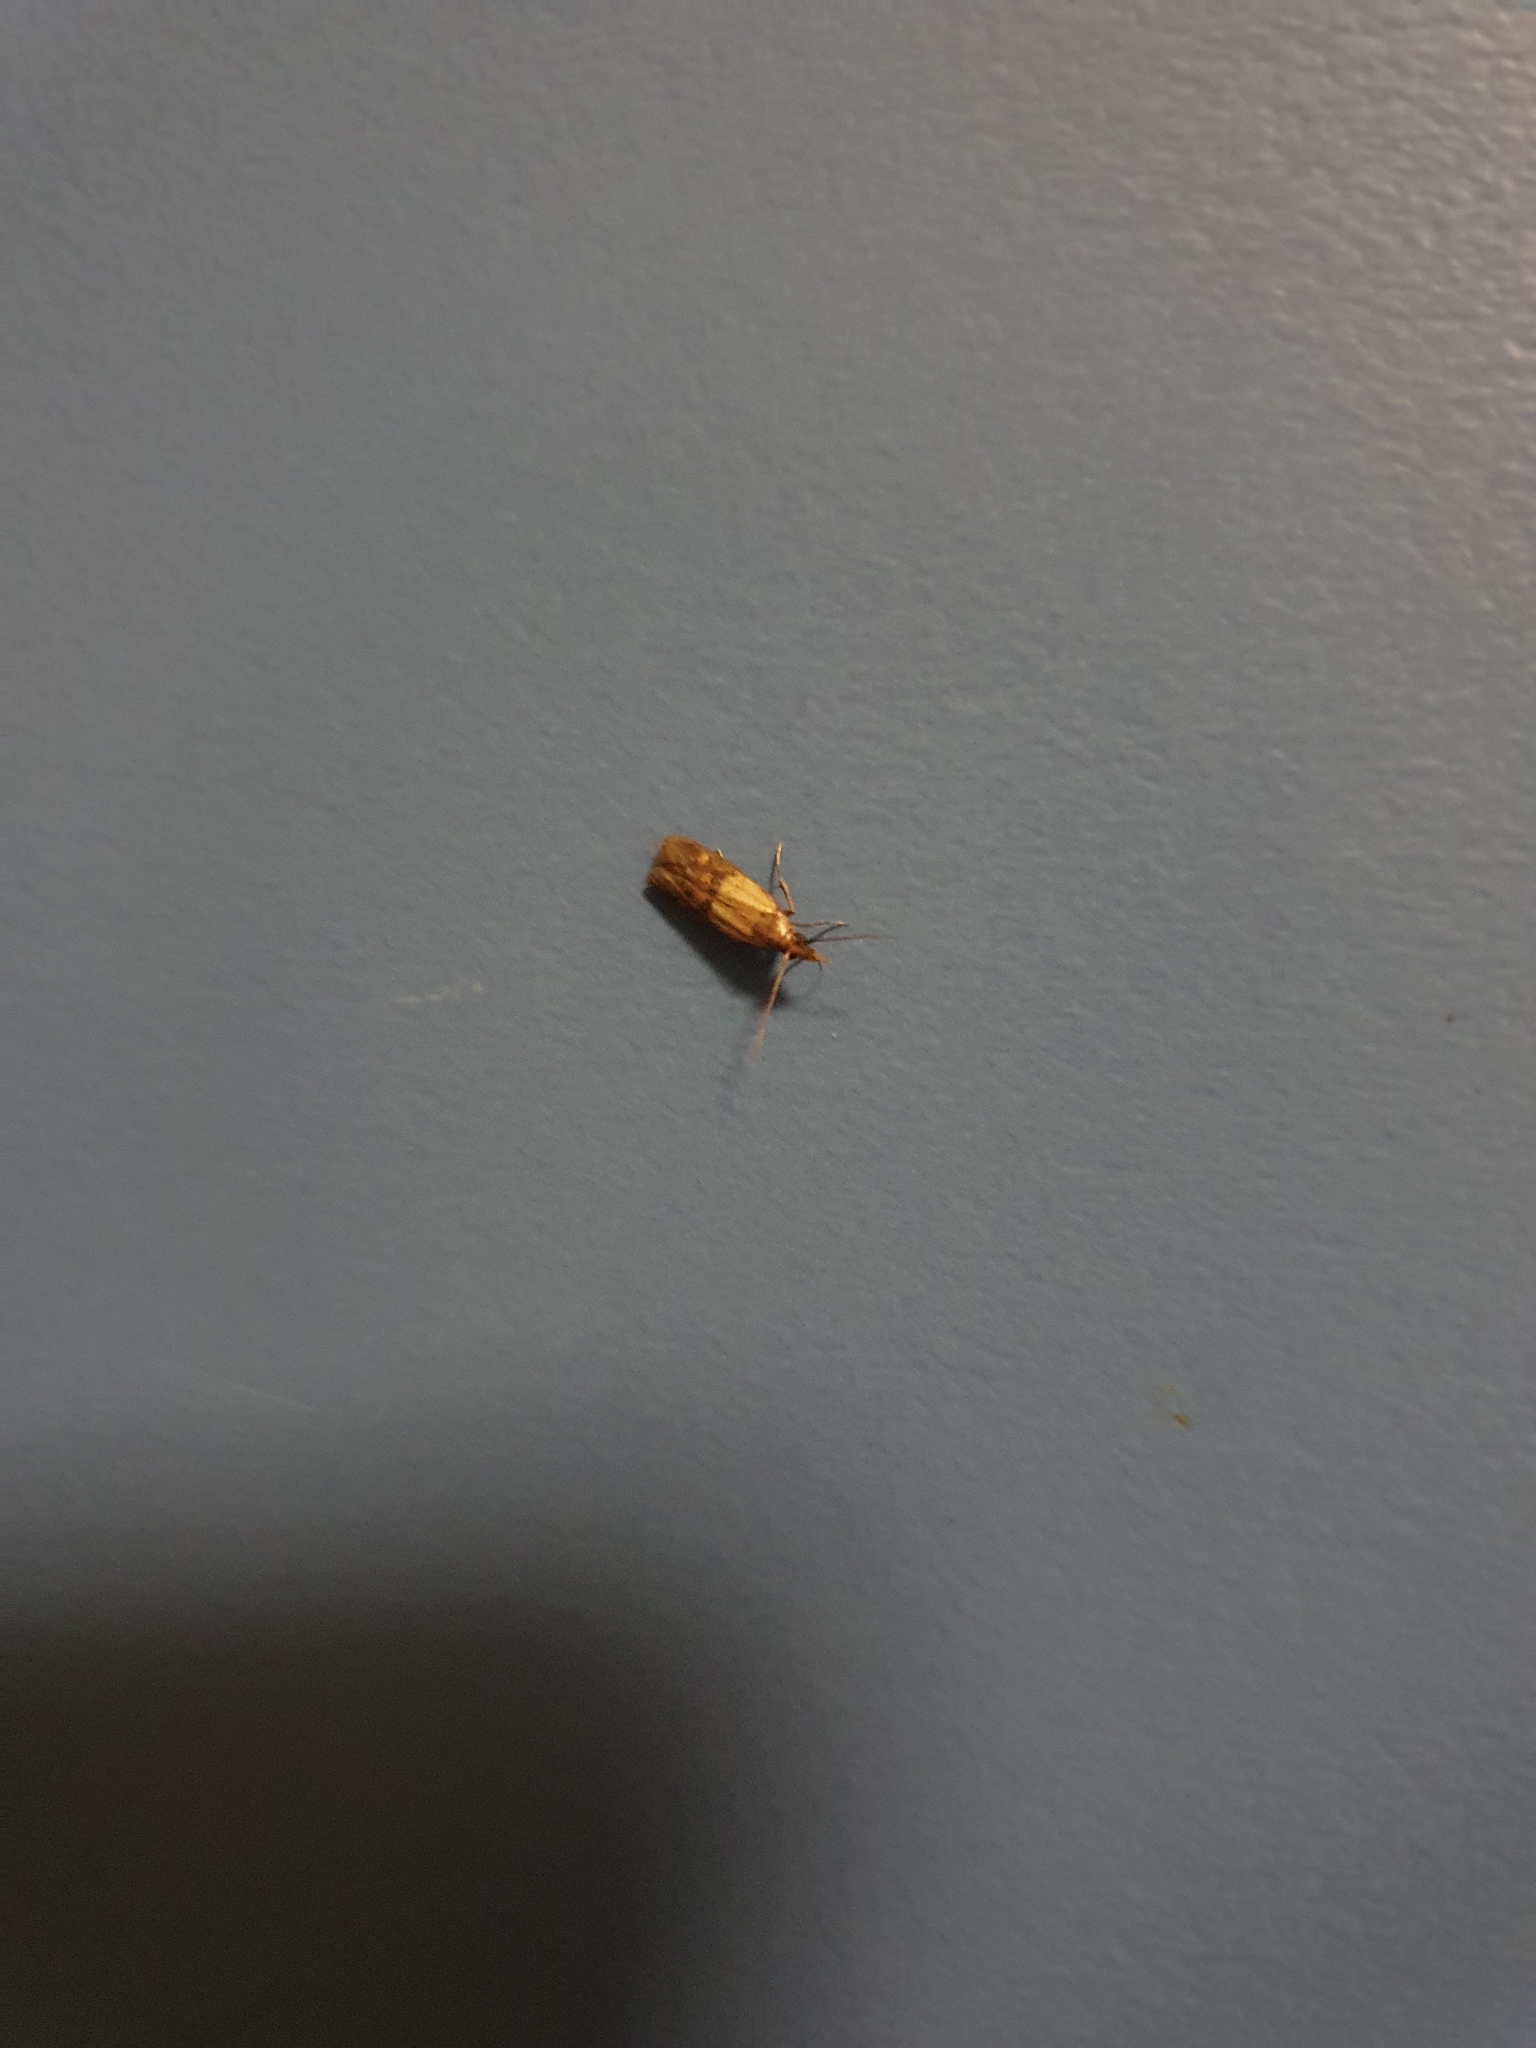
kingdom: Animalia
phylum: Arthropoda
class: Insecta
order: Lepidoptera
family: Pyralidae
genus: Plodia
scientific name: Plodia interpunctella
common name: Indian meal moth
